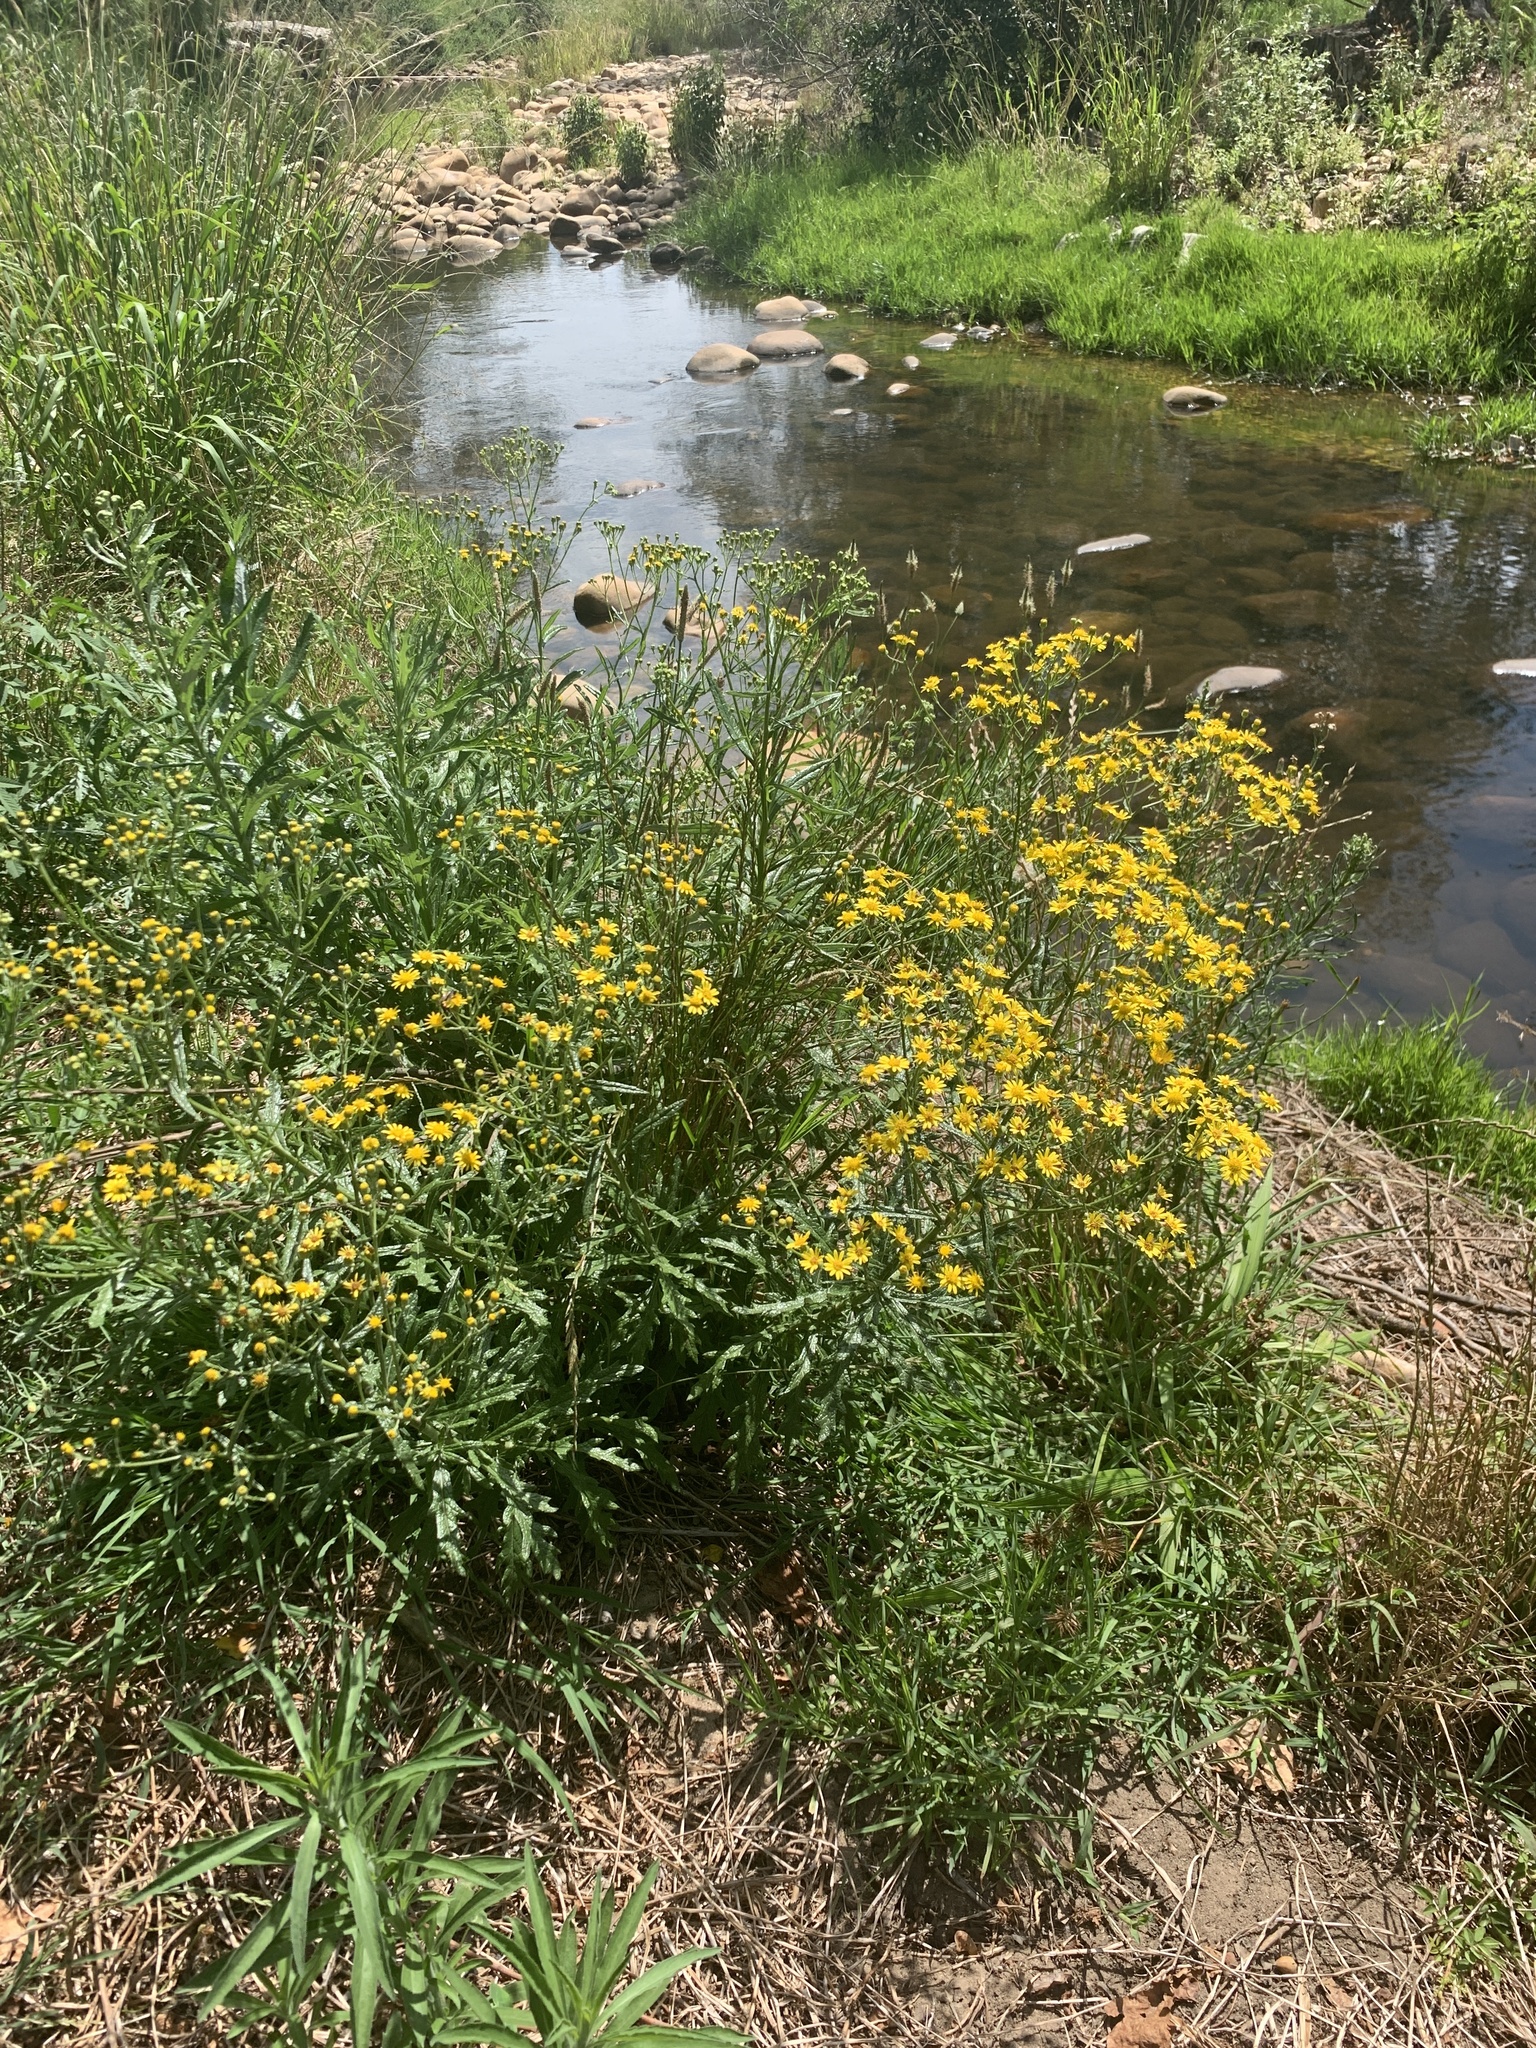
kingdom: Plantae
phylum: Tracheophyta
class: Magnoliopsida
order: Asterales
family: Asteraceae
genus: Senecio
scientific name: Senecio pterophorus
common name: Shoddy ragwort
